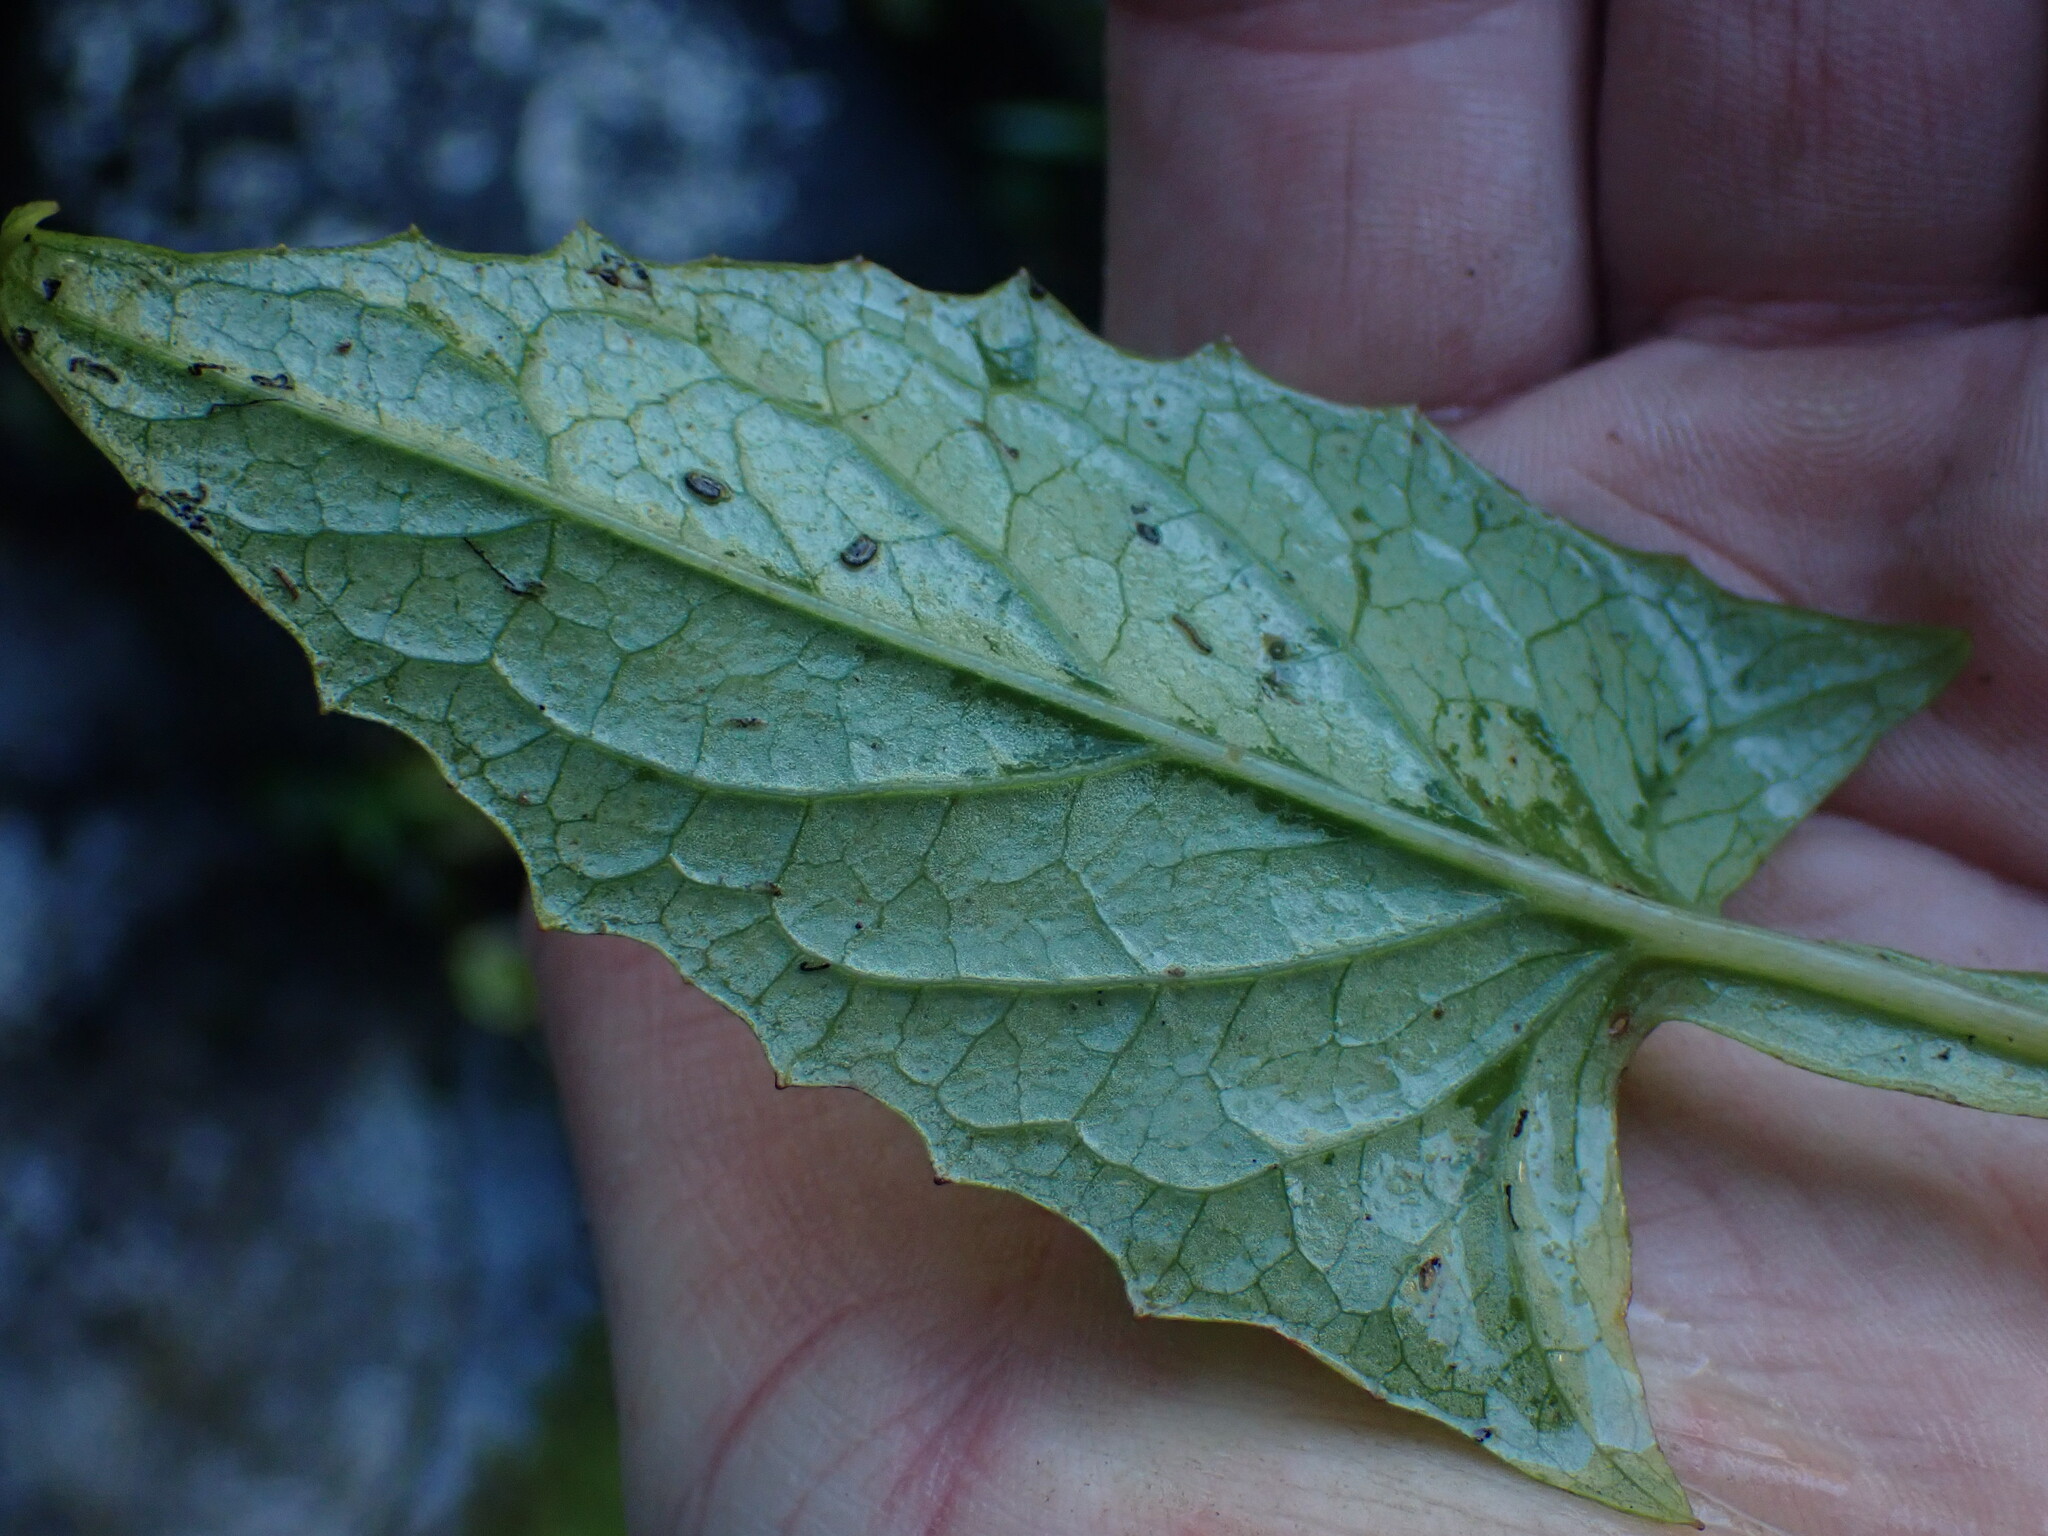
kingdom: Plantae
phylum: Tracheophyta
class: Magnoliopsida
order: Asterales
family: Asteraceae
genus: Nabalus
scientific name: Nabalus hastatus
